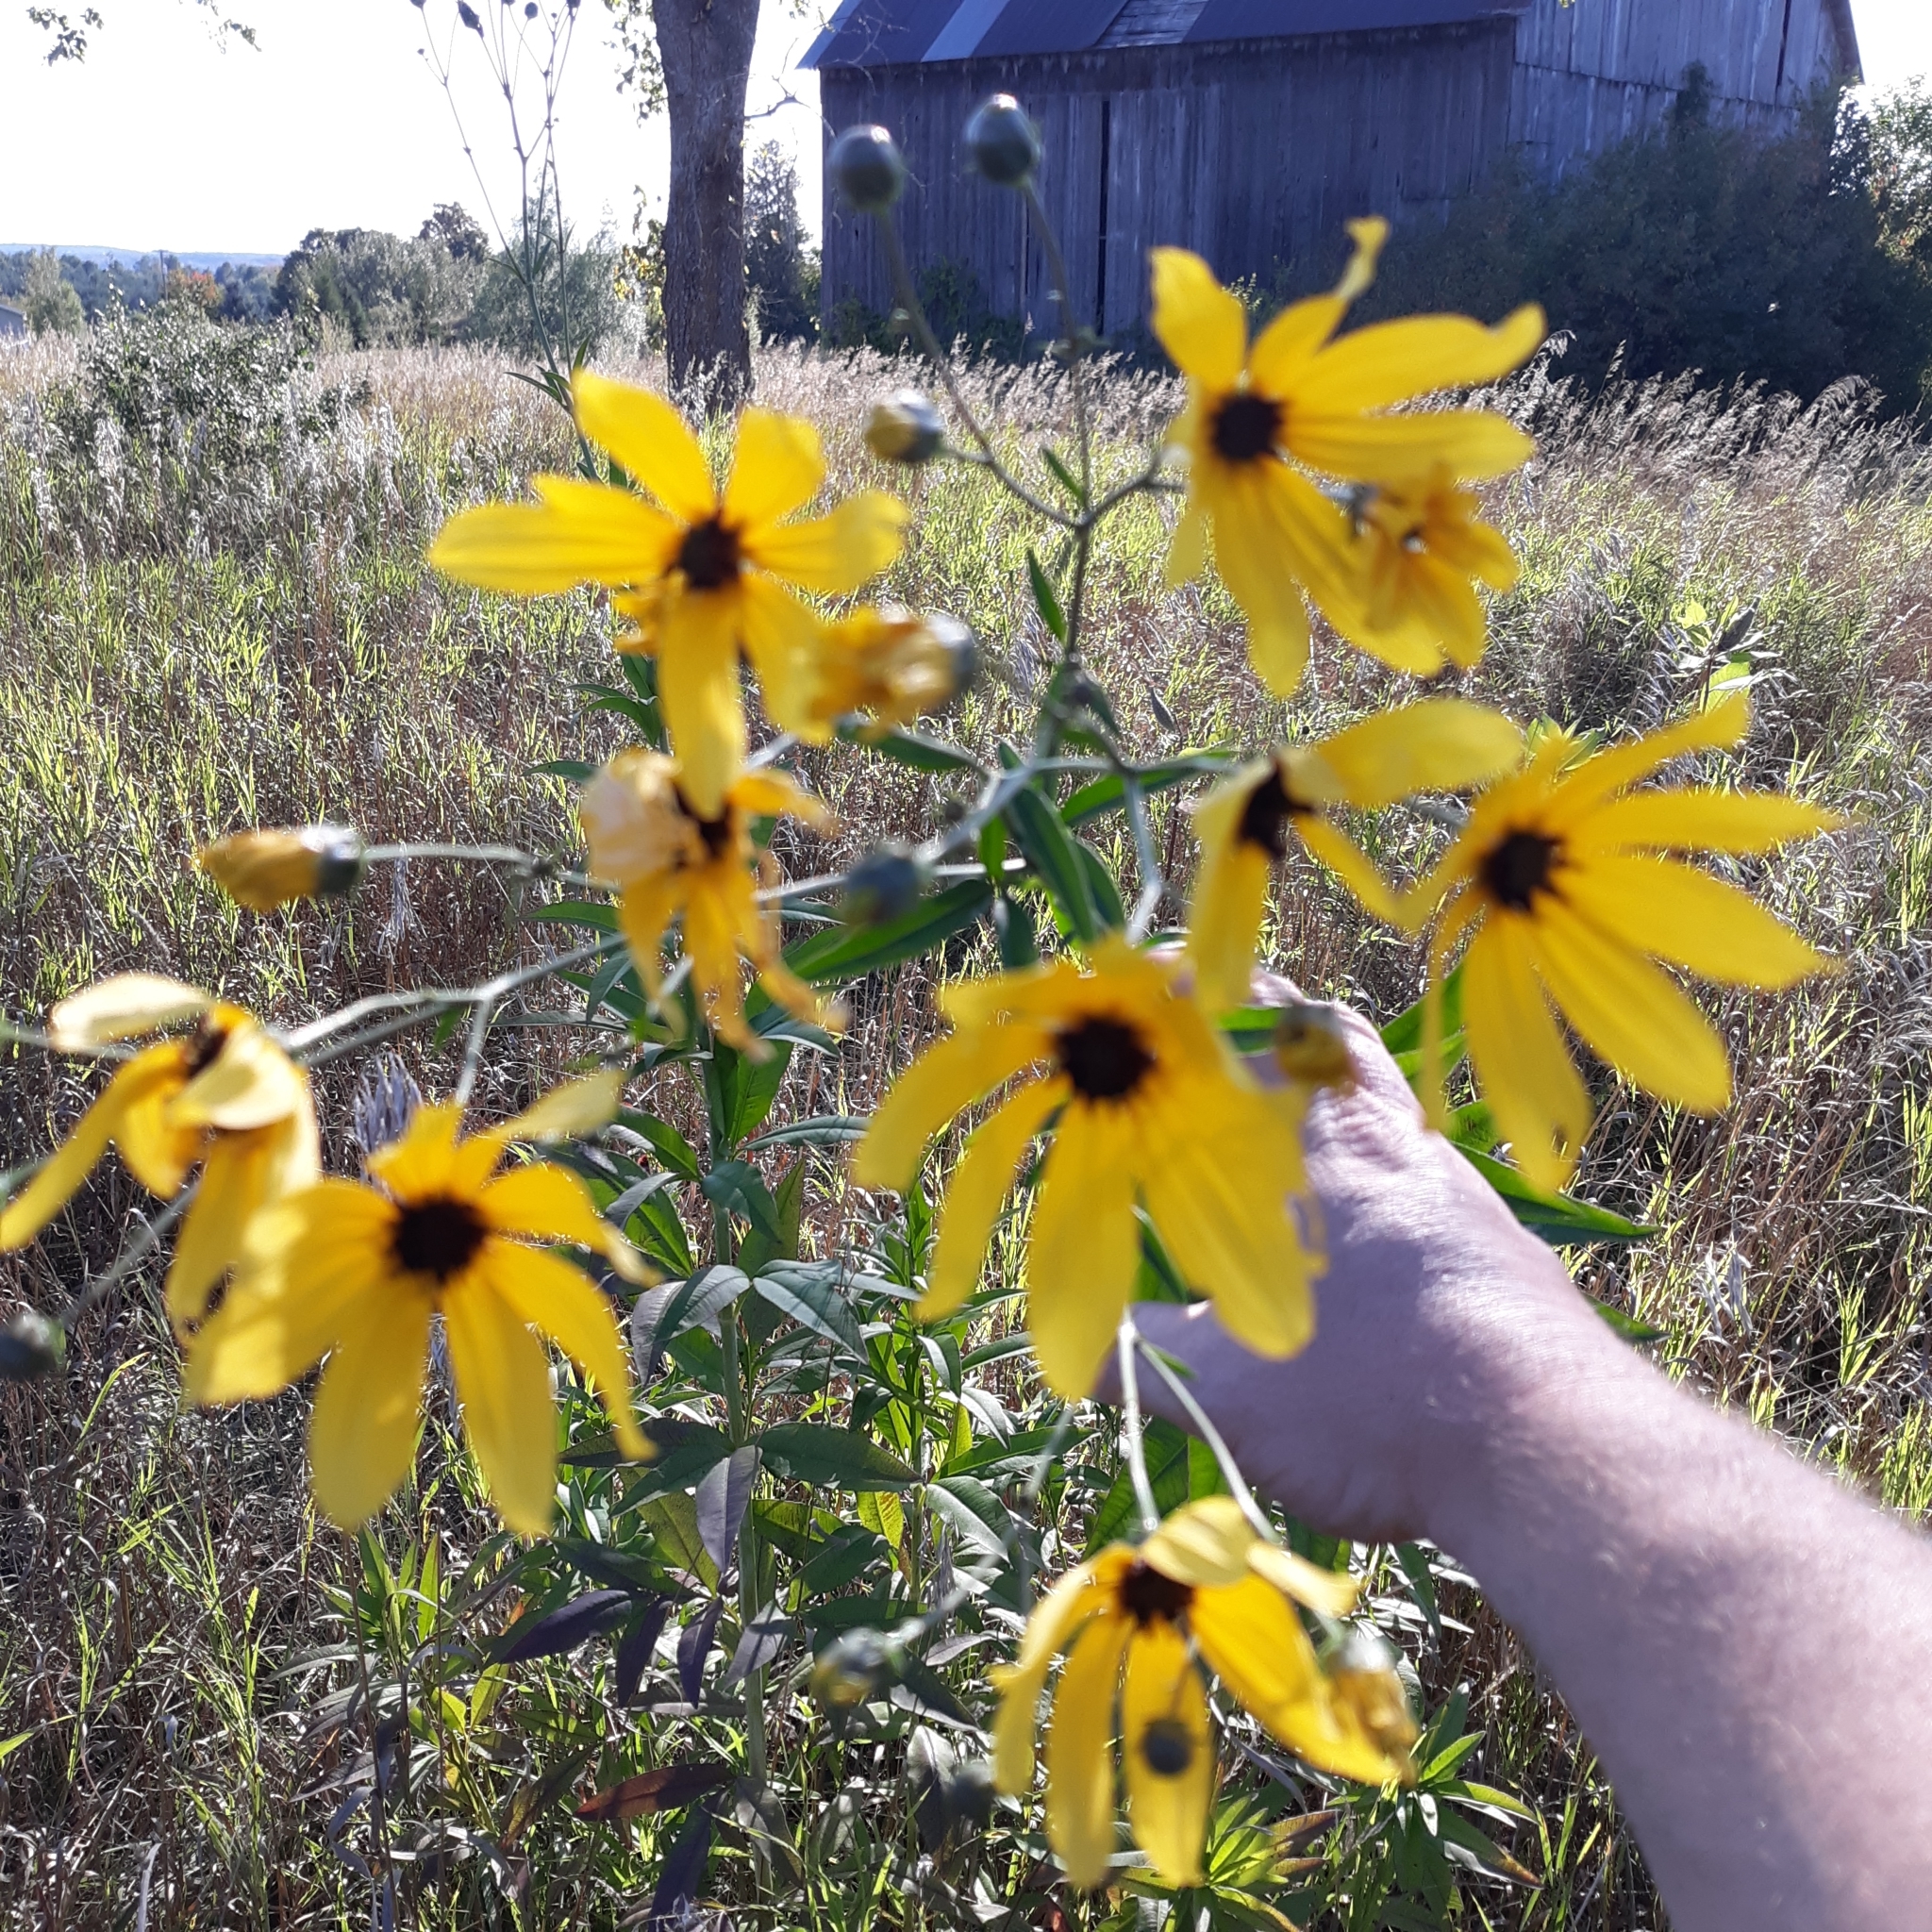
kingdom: Plantae
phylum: Tracheophyta
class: Magnoliopsida
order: Asterales
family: Asteraceae
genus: Coreopsis
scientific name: Coreopsis tripteris
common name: Tall coreopsis
